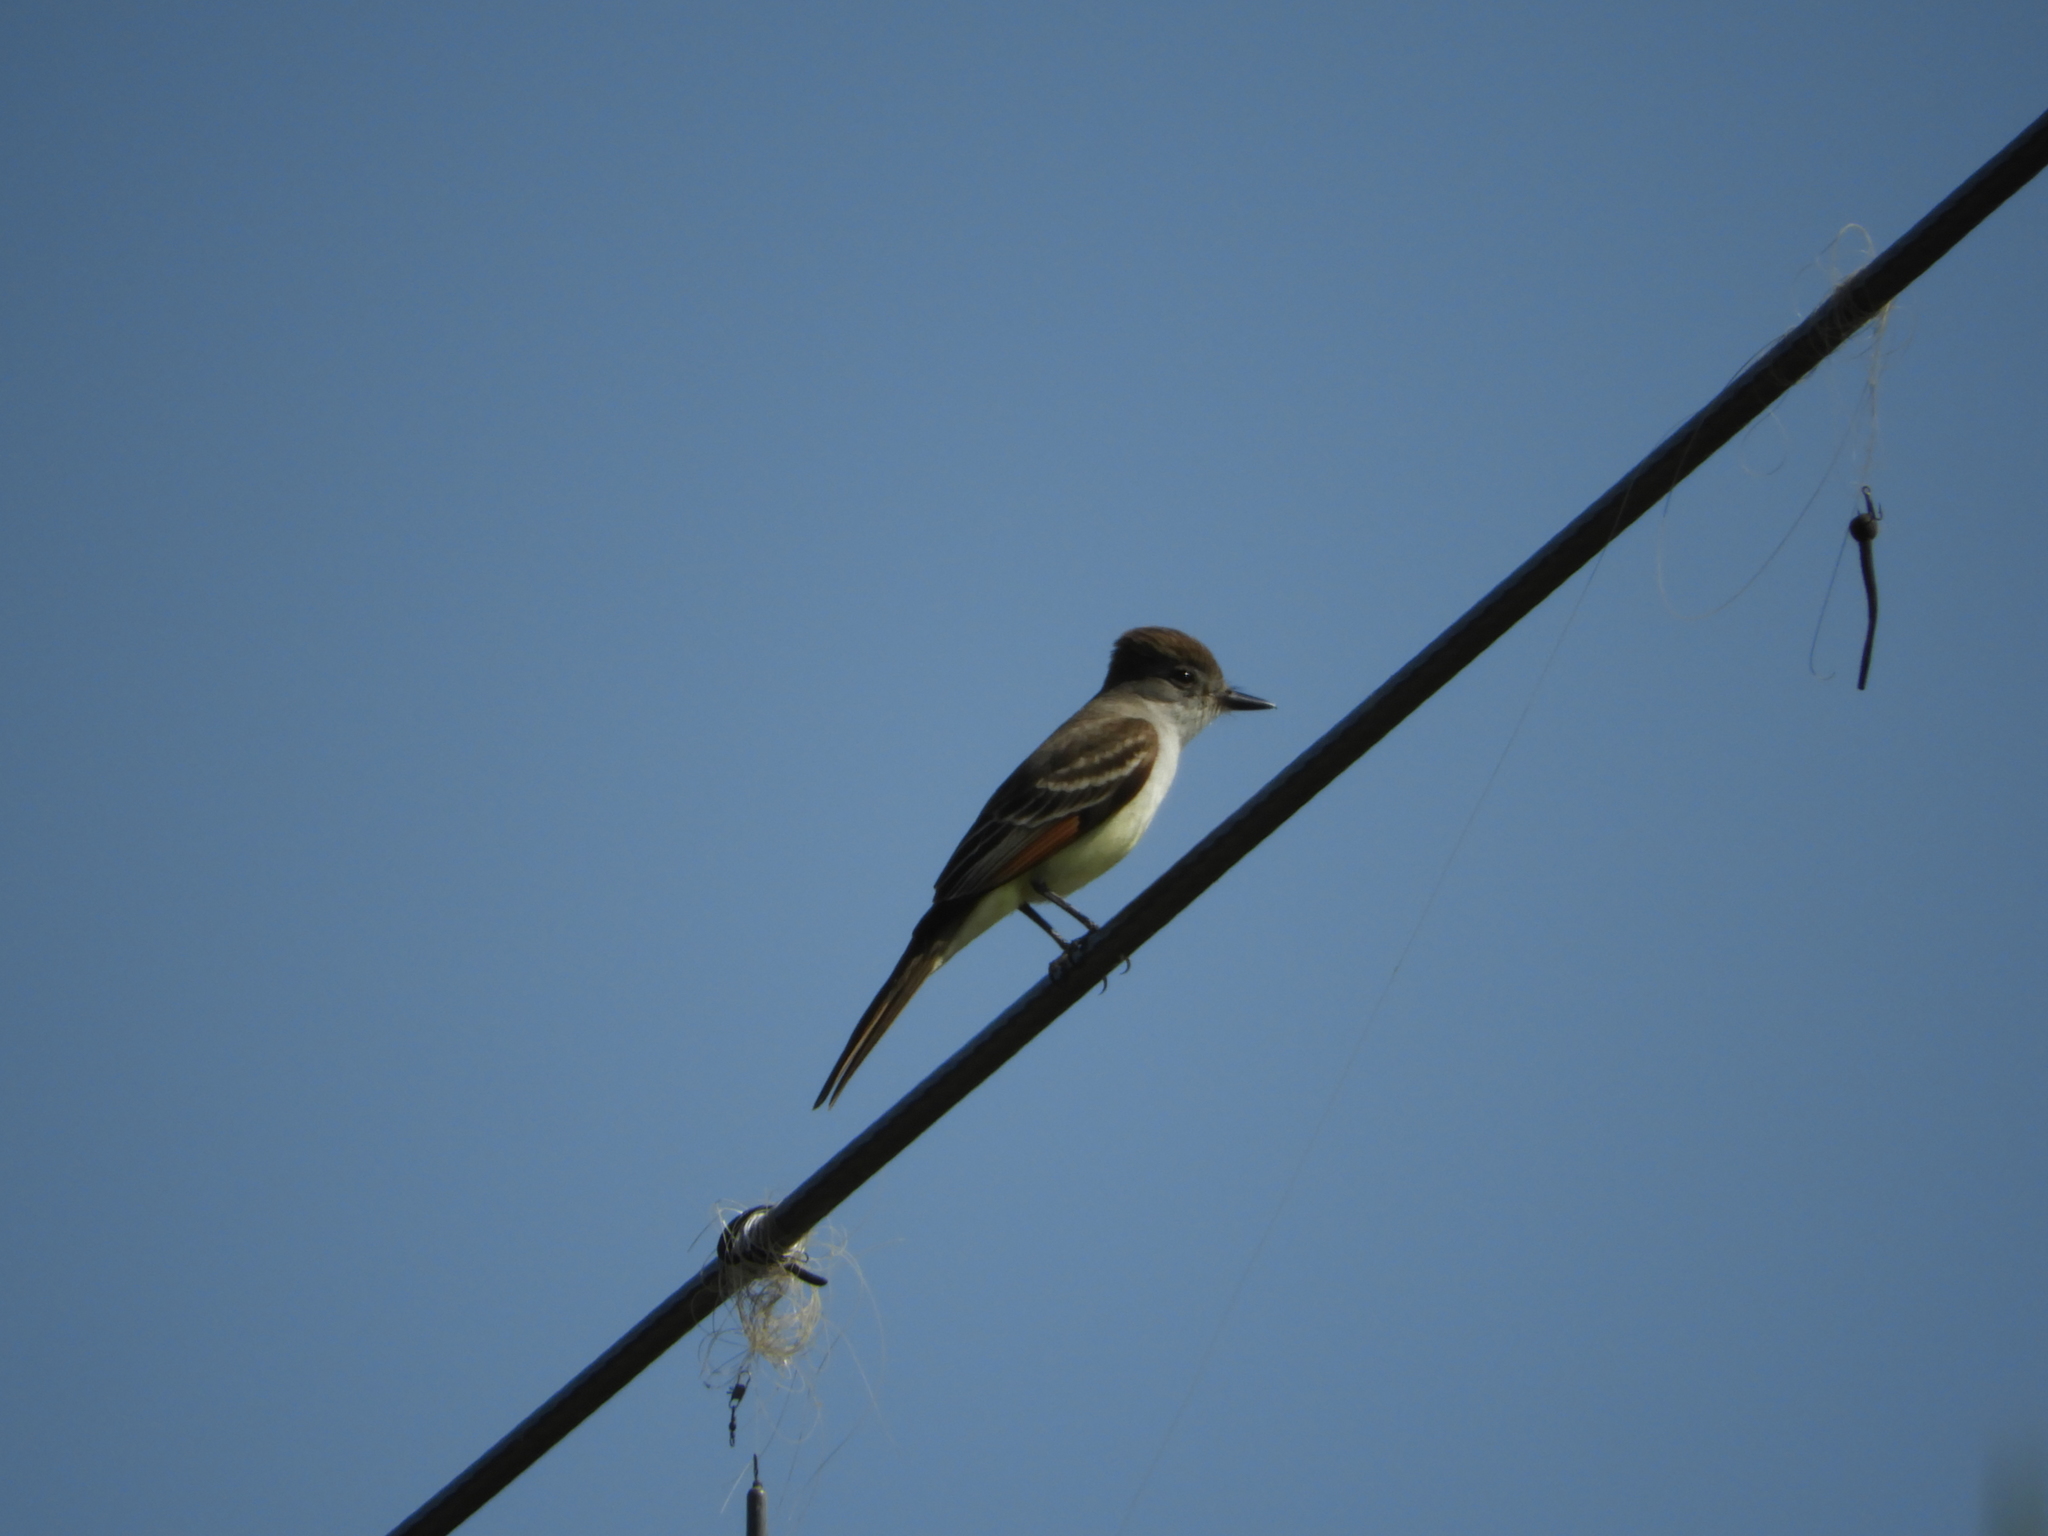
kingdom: Animalia
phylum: Chordata
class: Aves
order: Passeriformes
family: Tyrannidae
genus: Myiarchus
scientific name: Myiarchus cinerascens
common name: Ash-throated flycatcher
